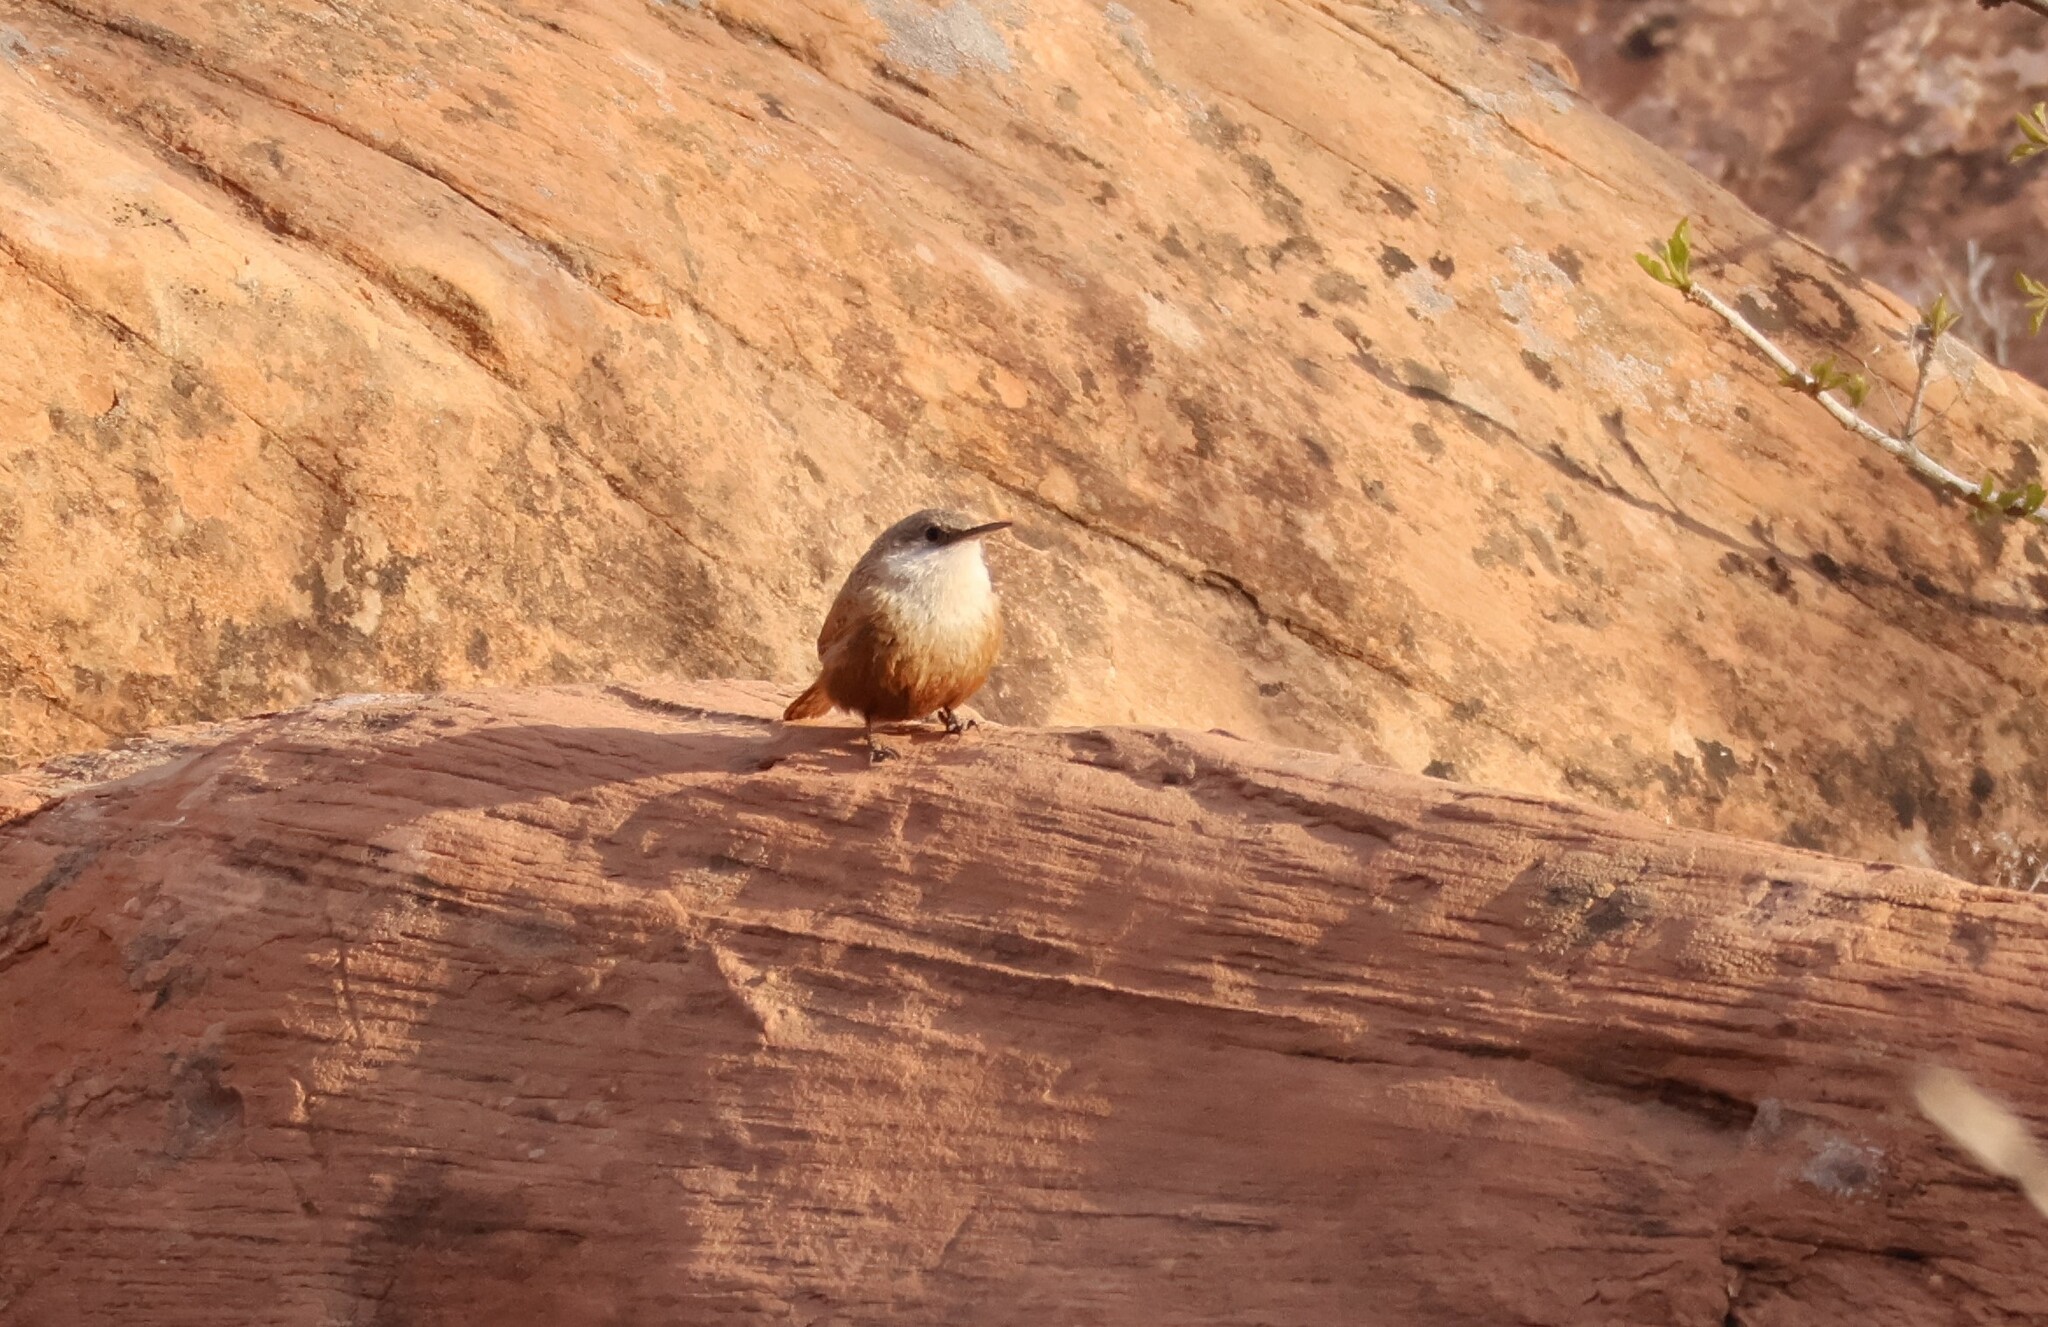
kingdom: Animalia
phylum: Chordata
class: Aves
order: Passeriformes
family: Troglodytidae
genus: Catherpes
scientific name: Catherpes mexicanus
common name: Canyon wren
